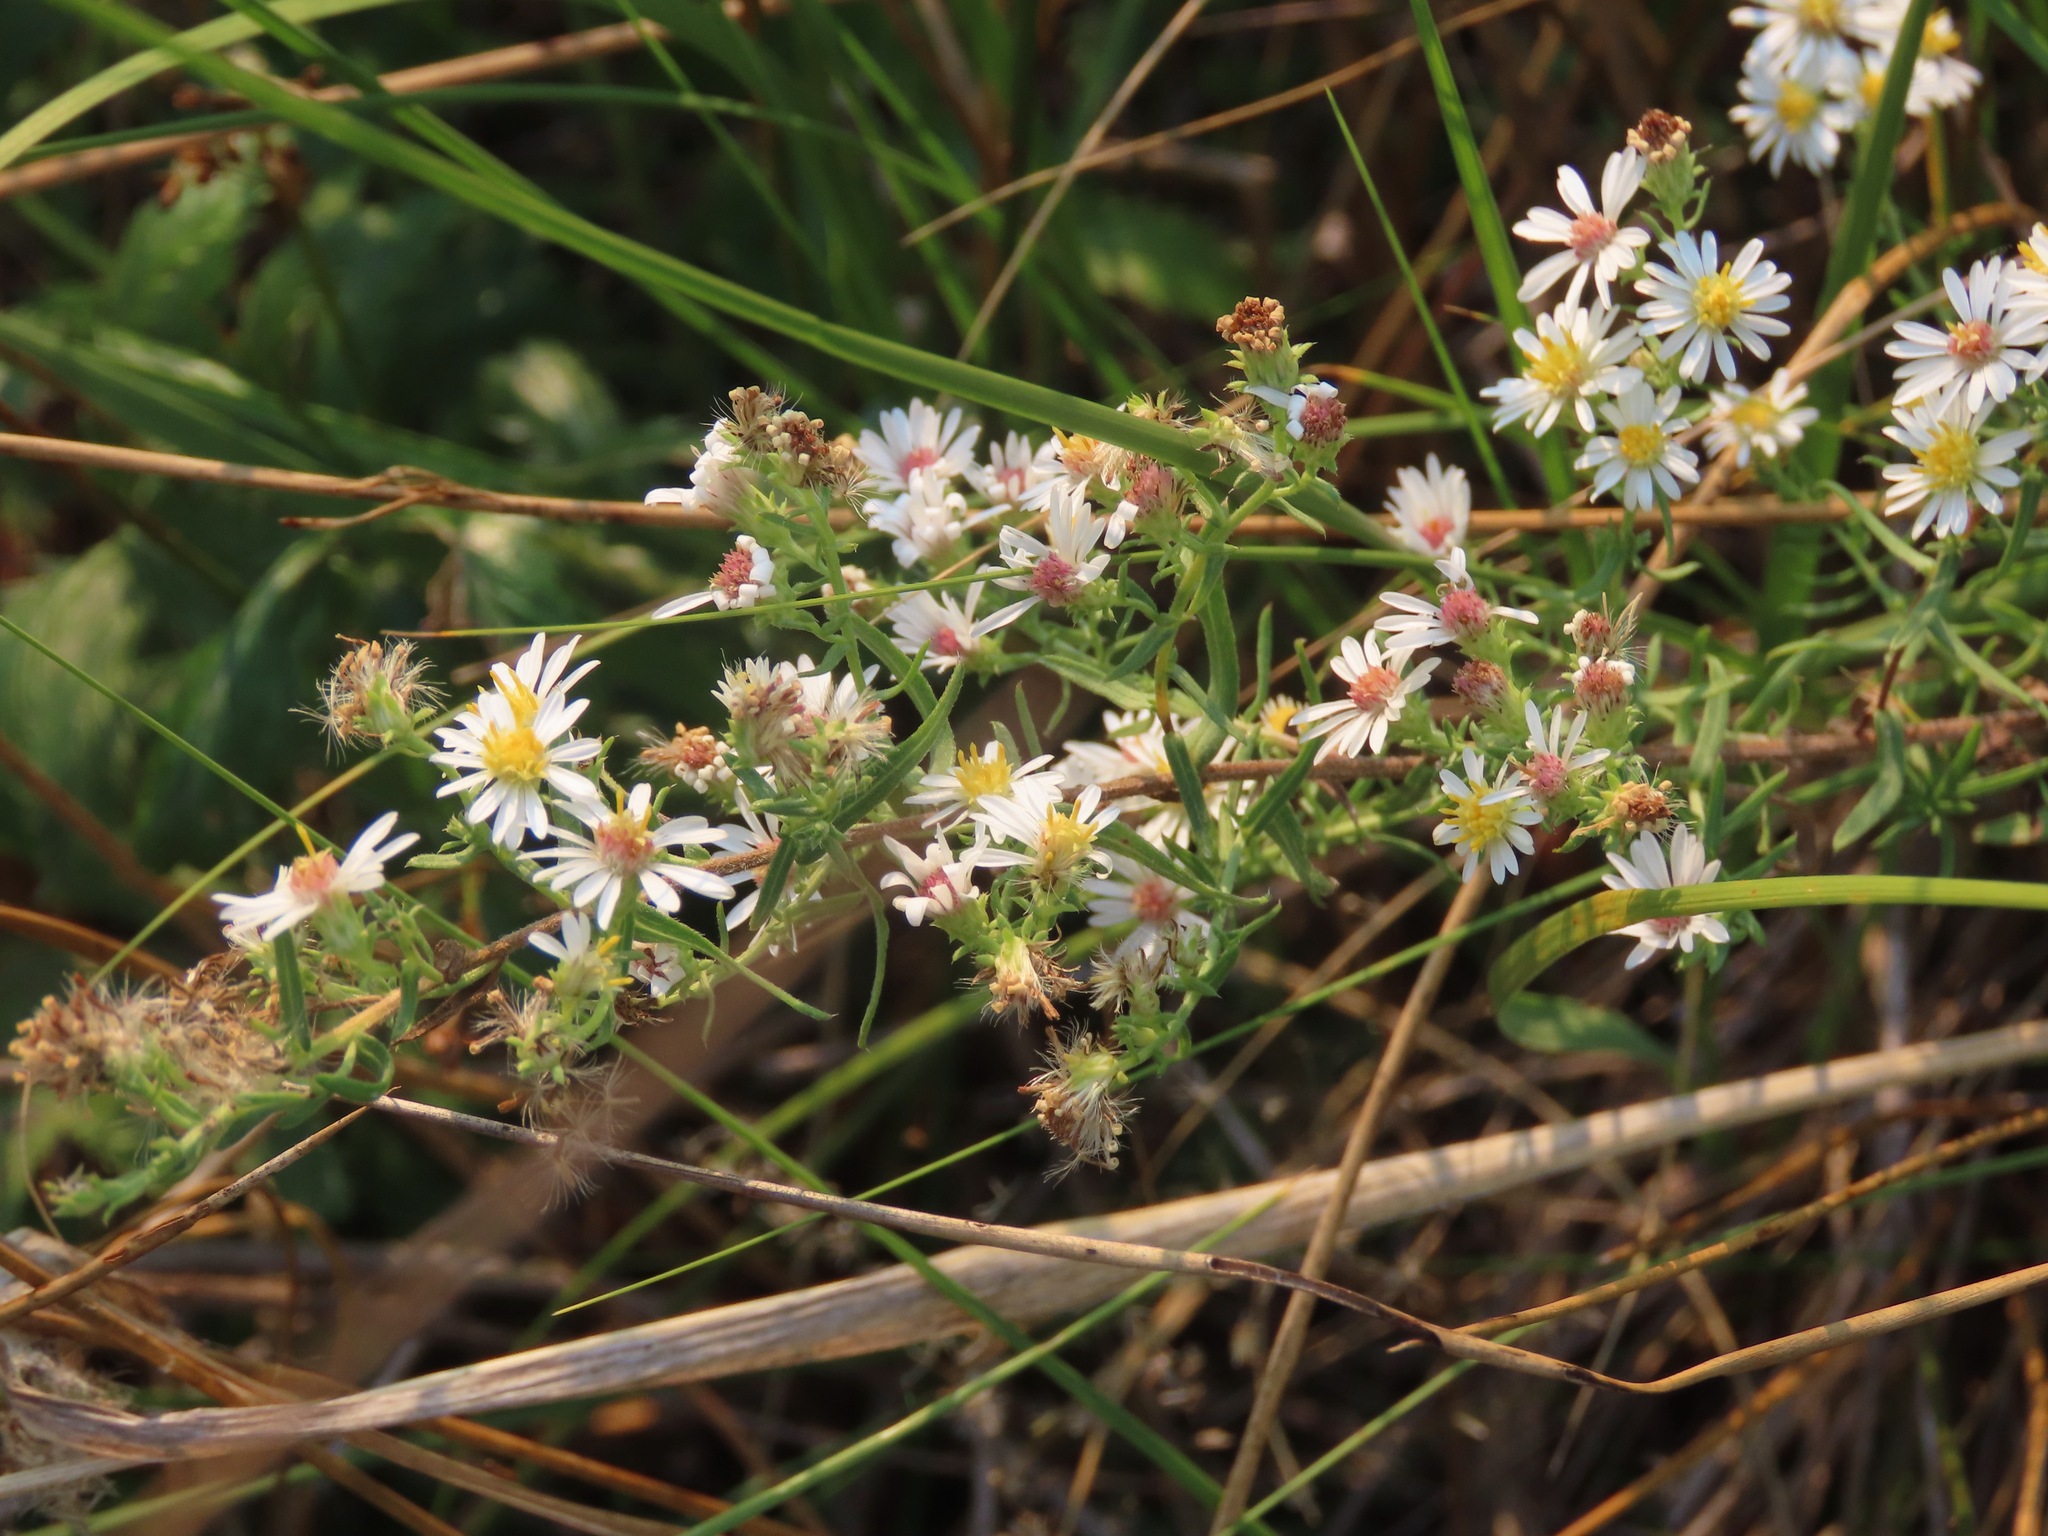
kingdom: Plantae
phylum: Tracheophyta
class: Magnoliopsida
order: Asterales
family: Asteraceae
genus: Symphyotrichum
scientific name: Symphyotrichum ericoides
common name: Heath aster
